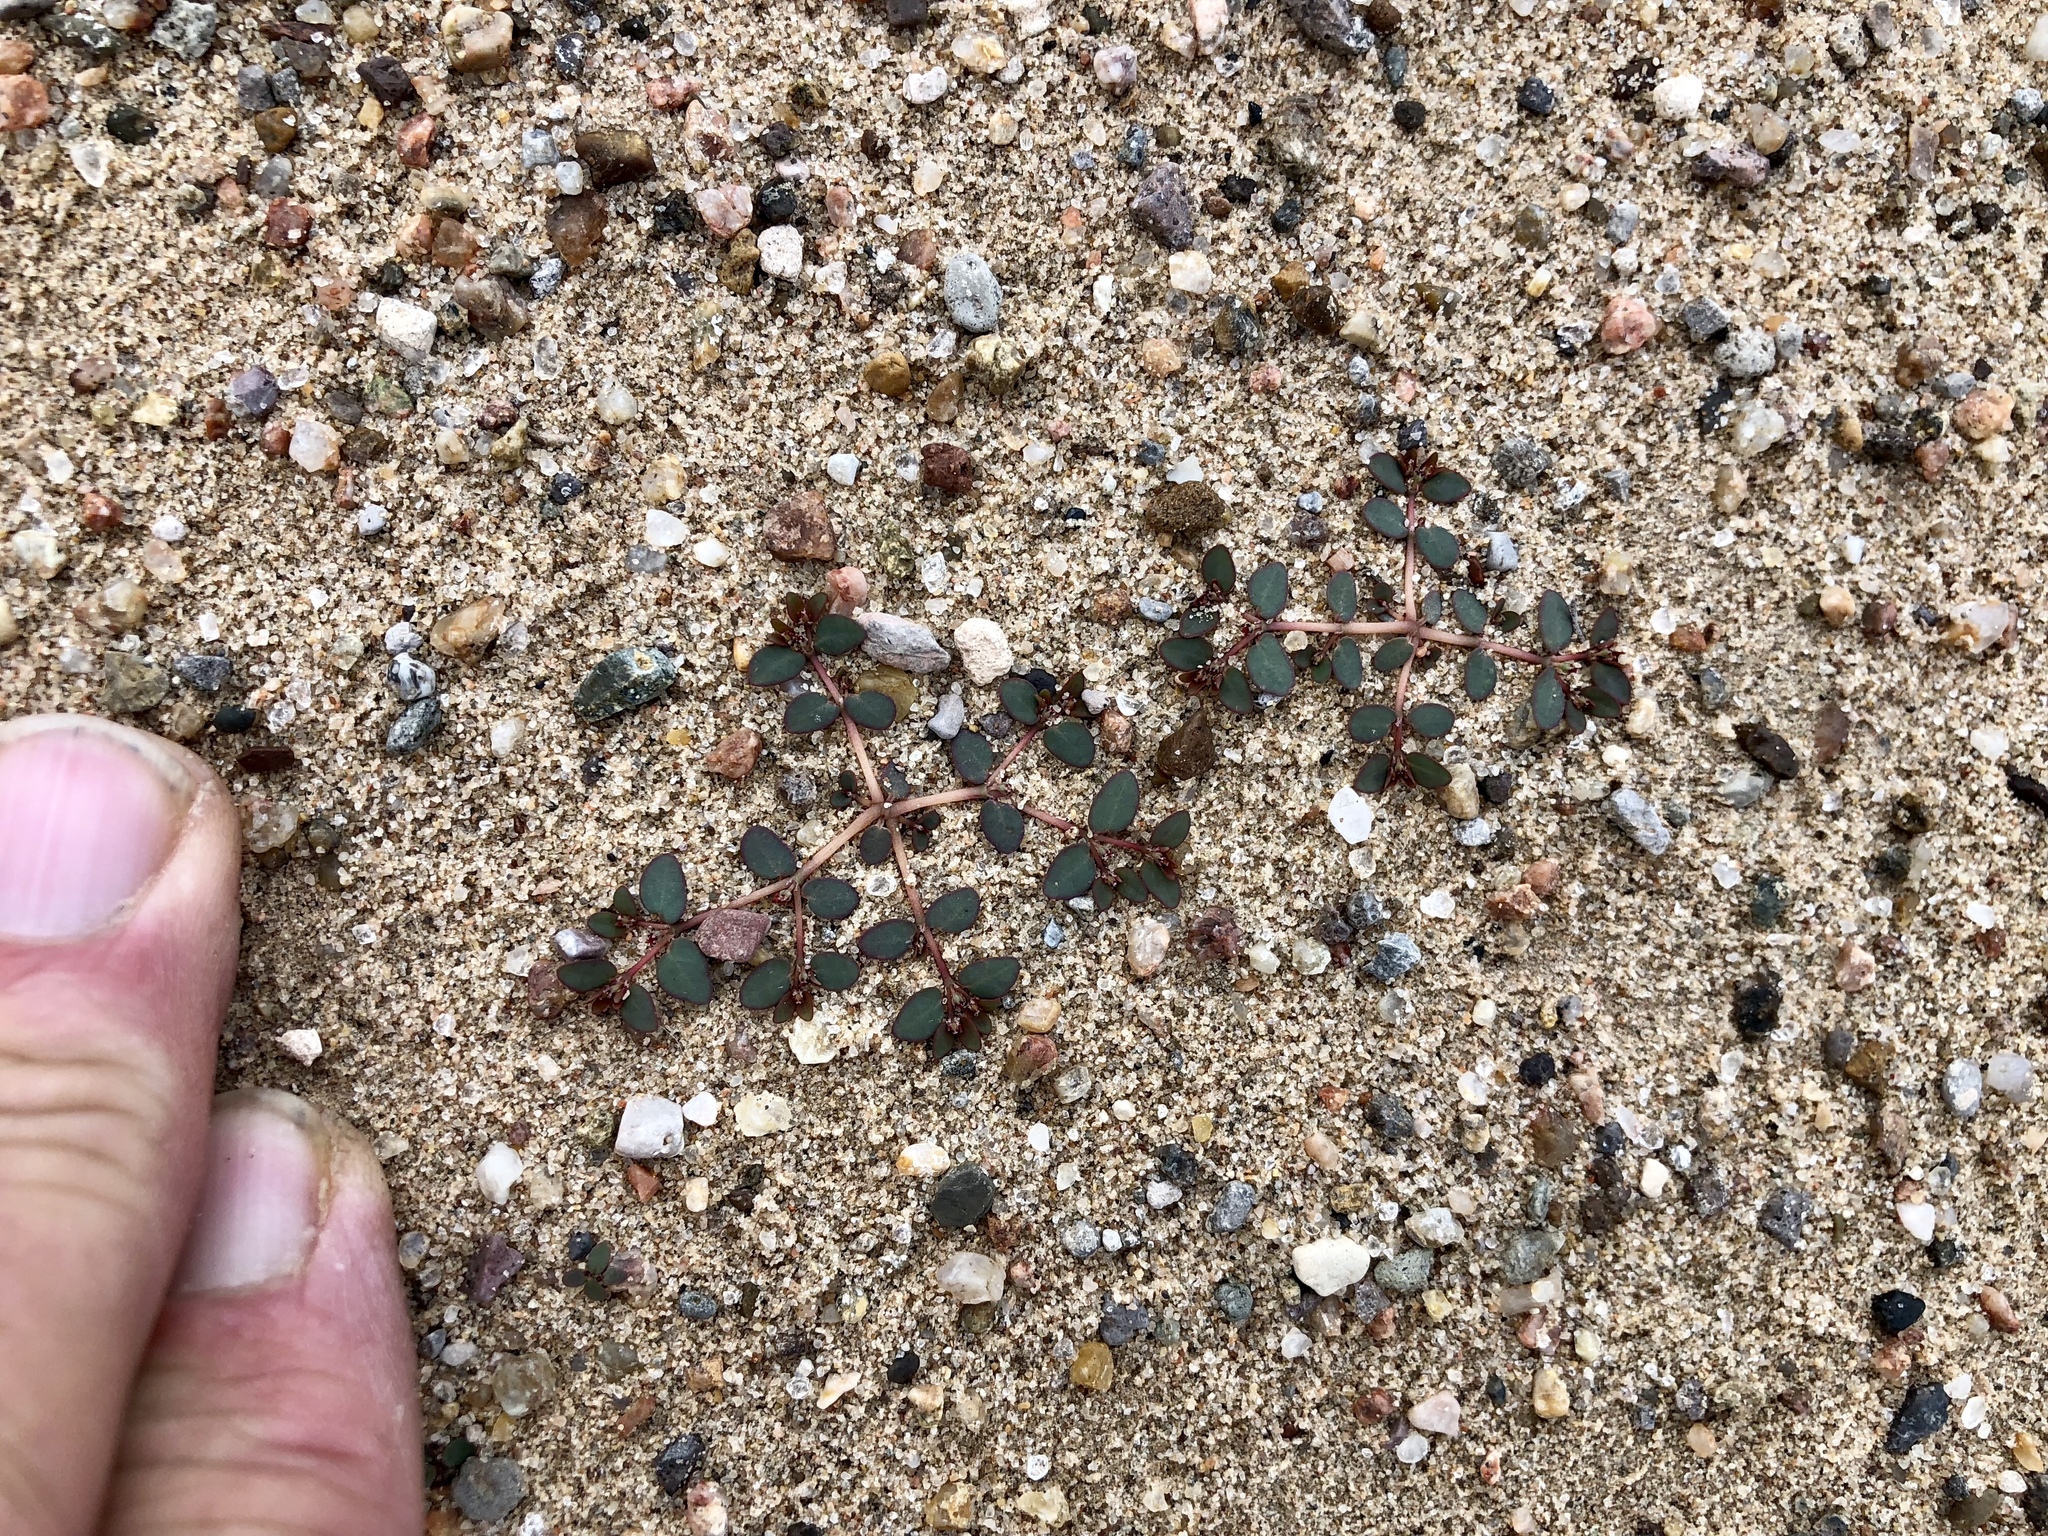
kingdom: Plantae
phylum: Tracheophyta
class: Magnoliopsida
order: Malpighiales
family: Euphorbiaceae
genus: Euphorbia
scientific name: Euphorbia micromera
